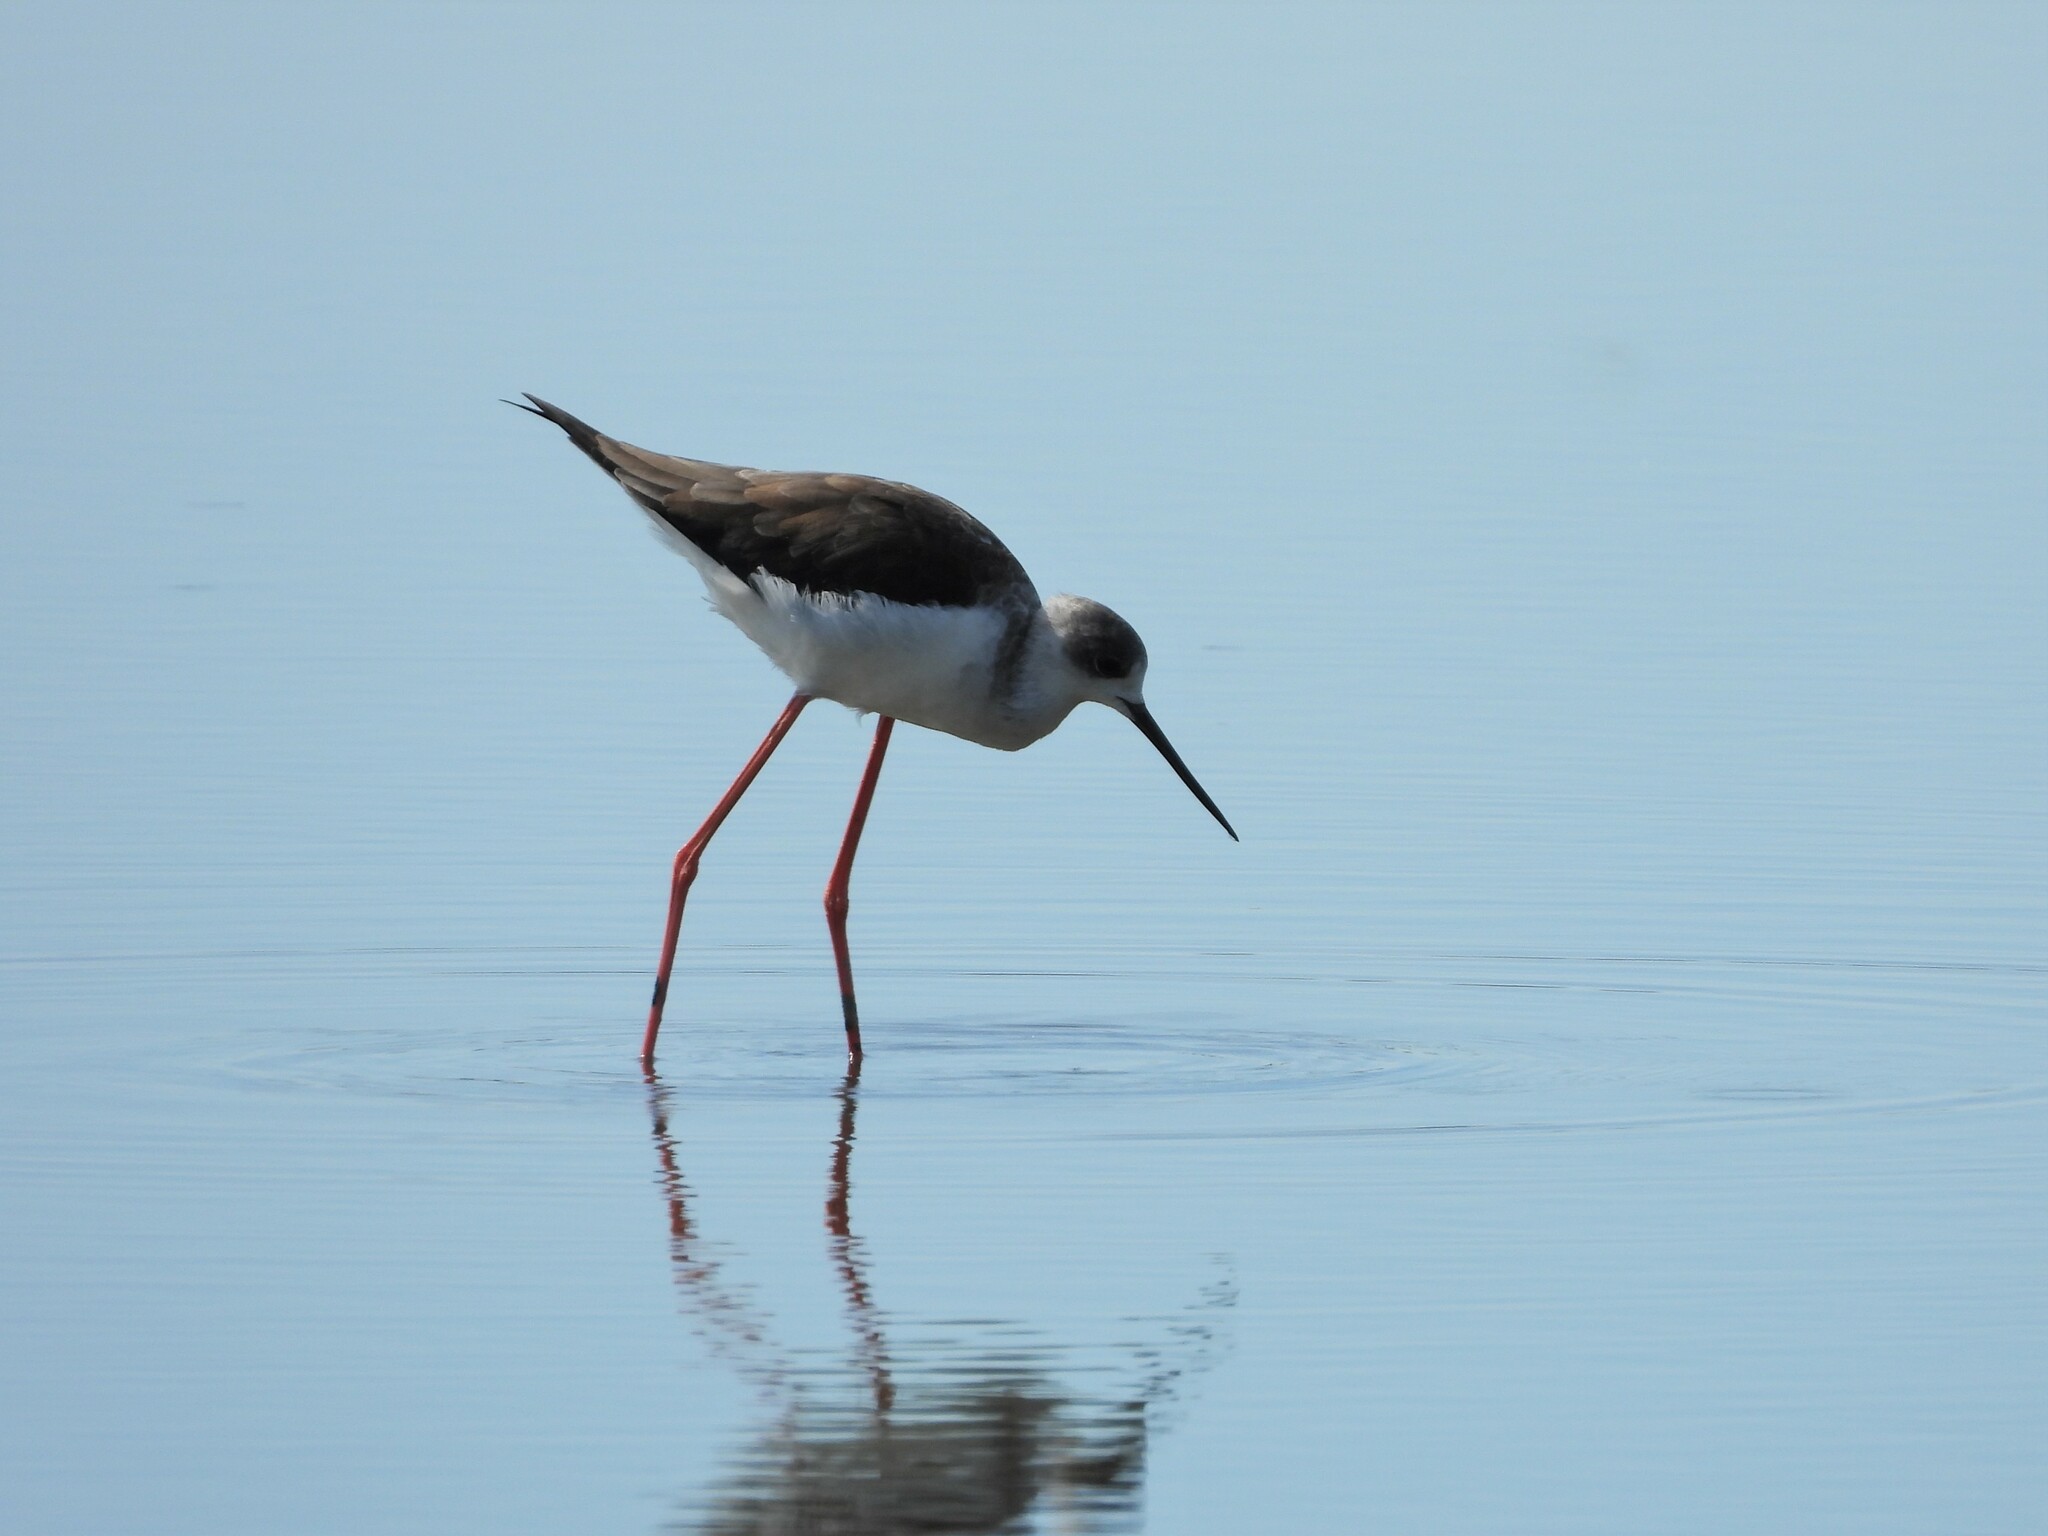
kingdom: Animalia
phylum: Chordata
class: Aves
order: Charadriiformes
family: Recurvirostridae
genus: Himantopus
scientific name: Himantopus himantopus
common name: Black-winged stilt
